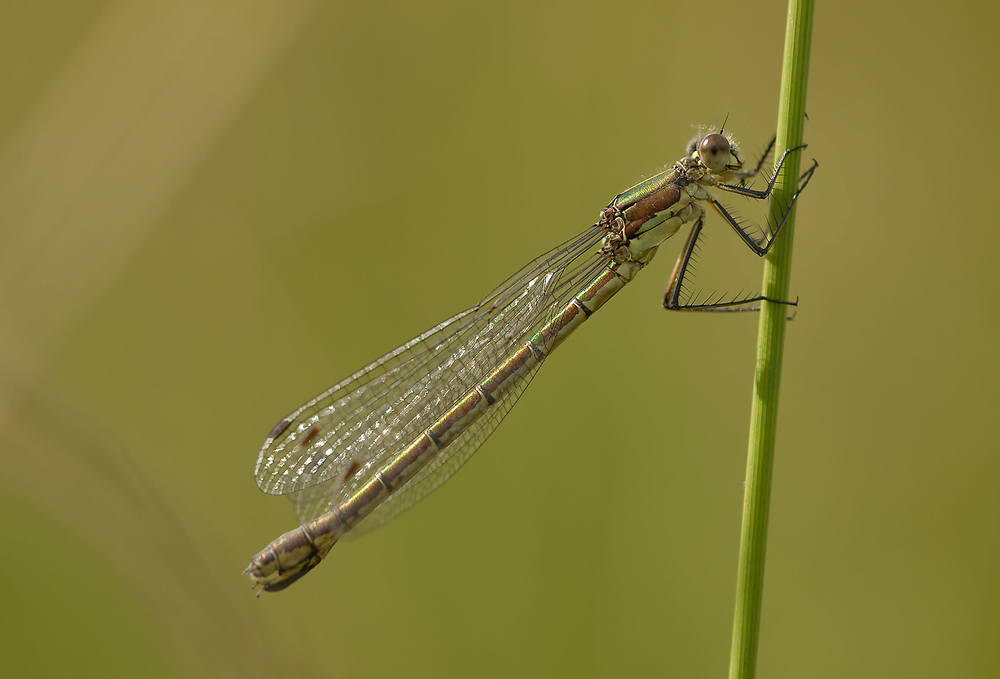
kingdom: Animalia
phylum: Arthropoda
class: Insecta
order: Odonata
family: Lestidae
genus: Lestes
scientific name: Lestes dryas
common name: Scarce emerald damselfly
